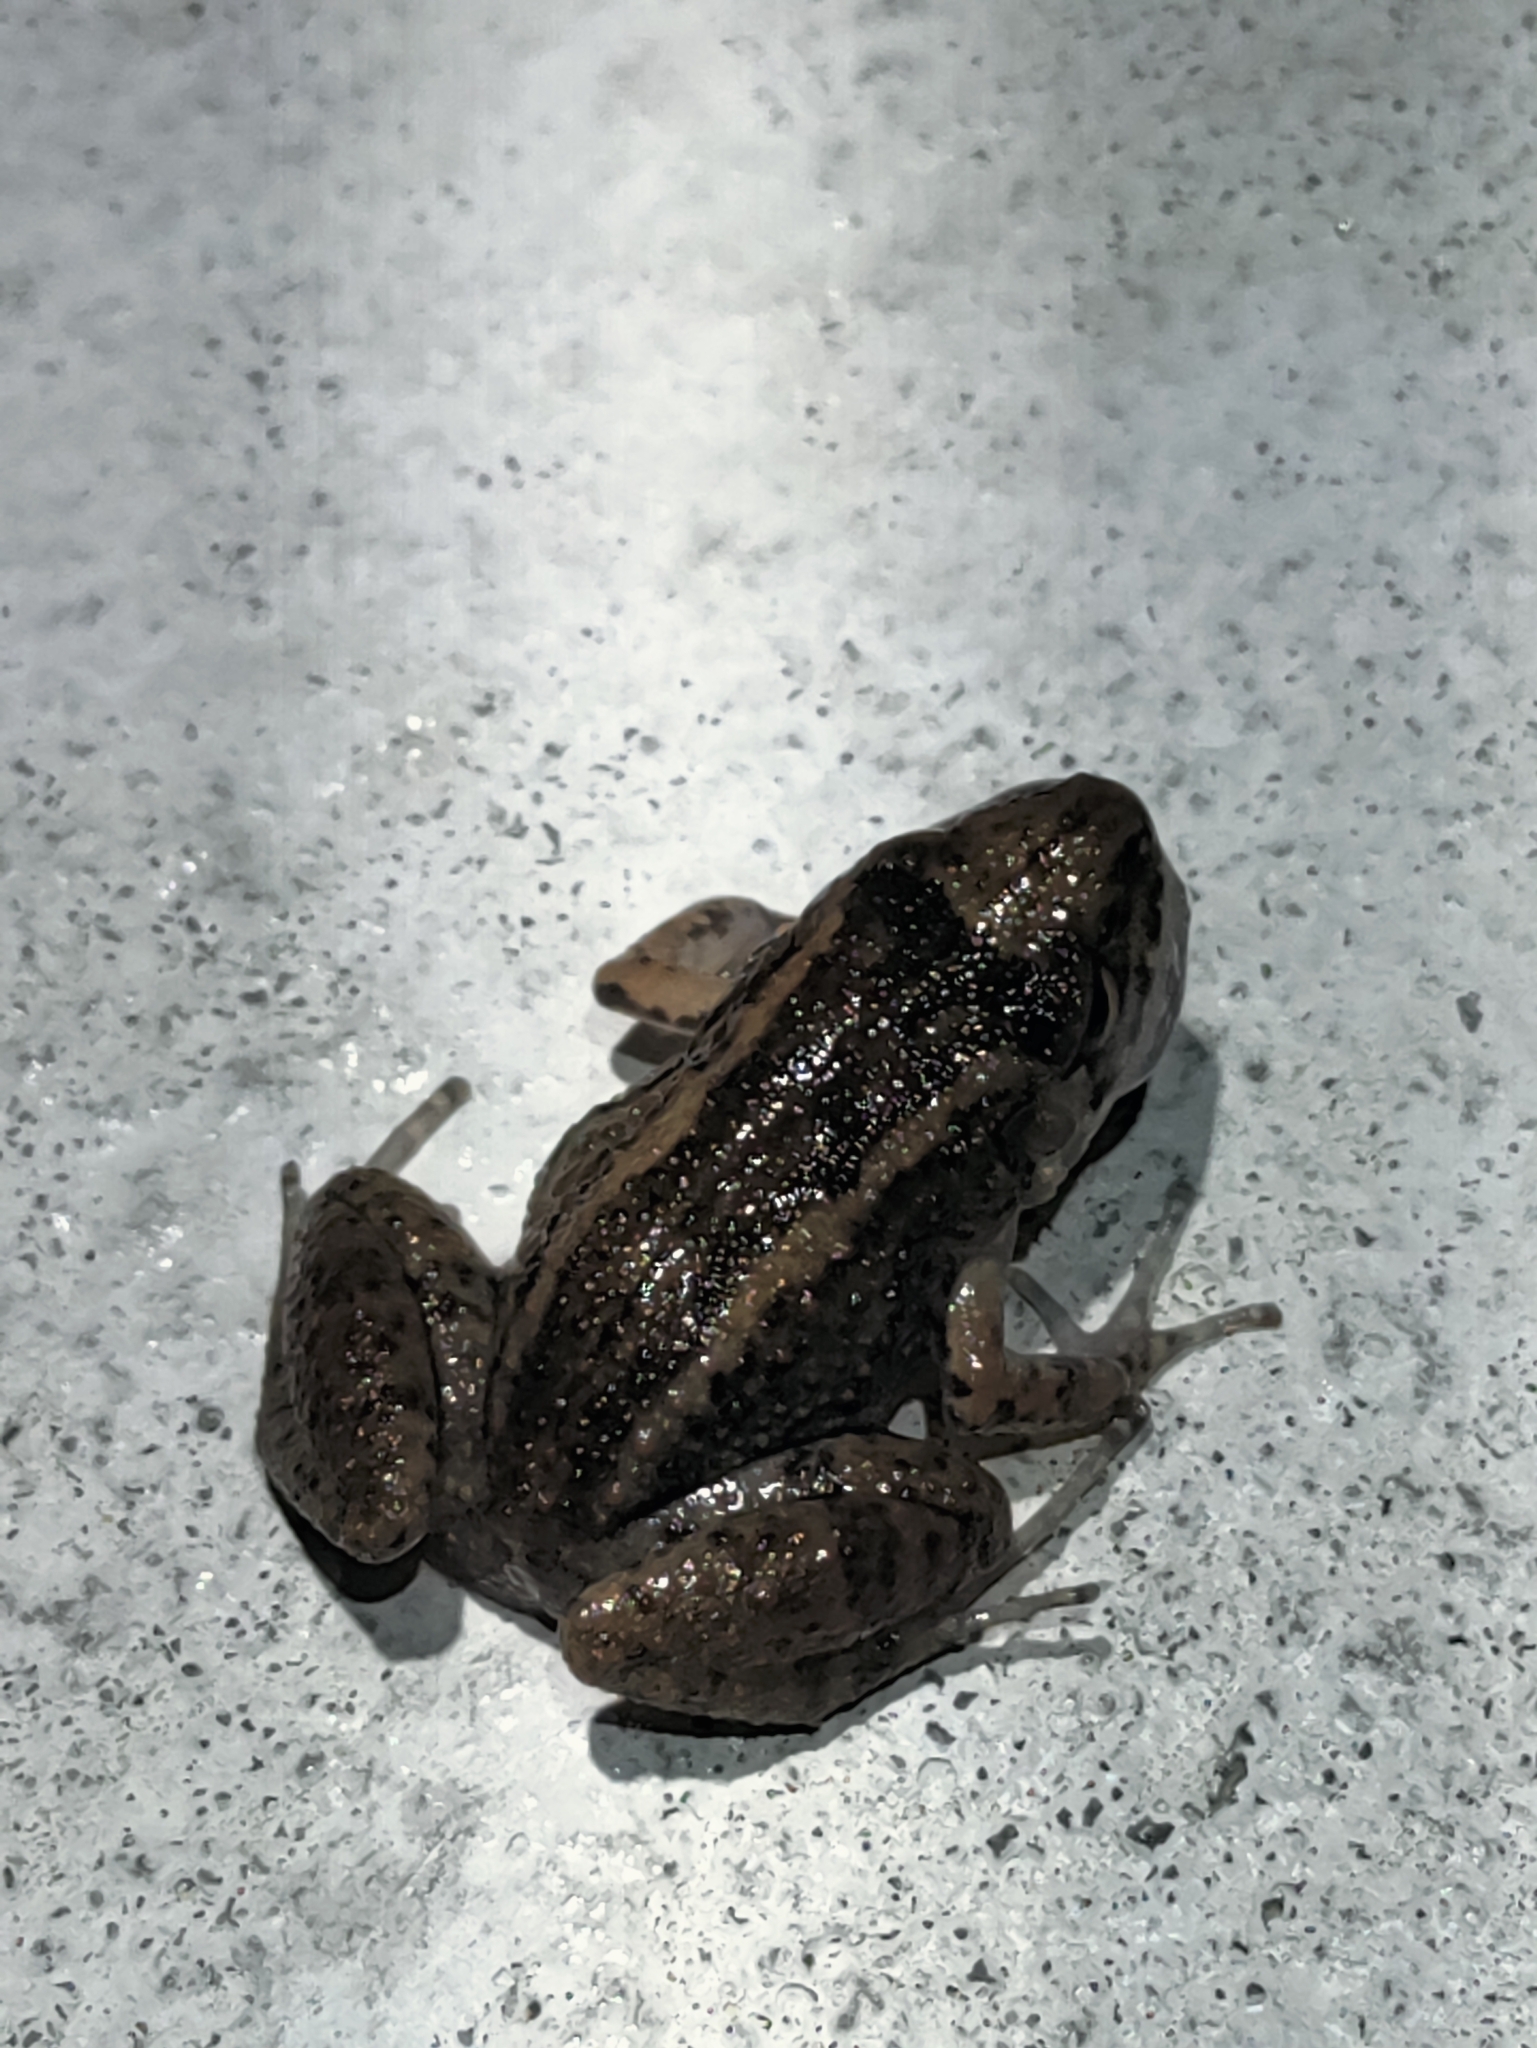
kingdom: Animalia
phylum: Chordata
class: Amphibia
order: Anura
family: Eleutherodactylidae
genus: Eleutherodactylus
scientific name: Eleutherodactylus planirostris
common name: Greenhouse frog
